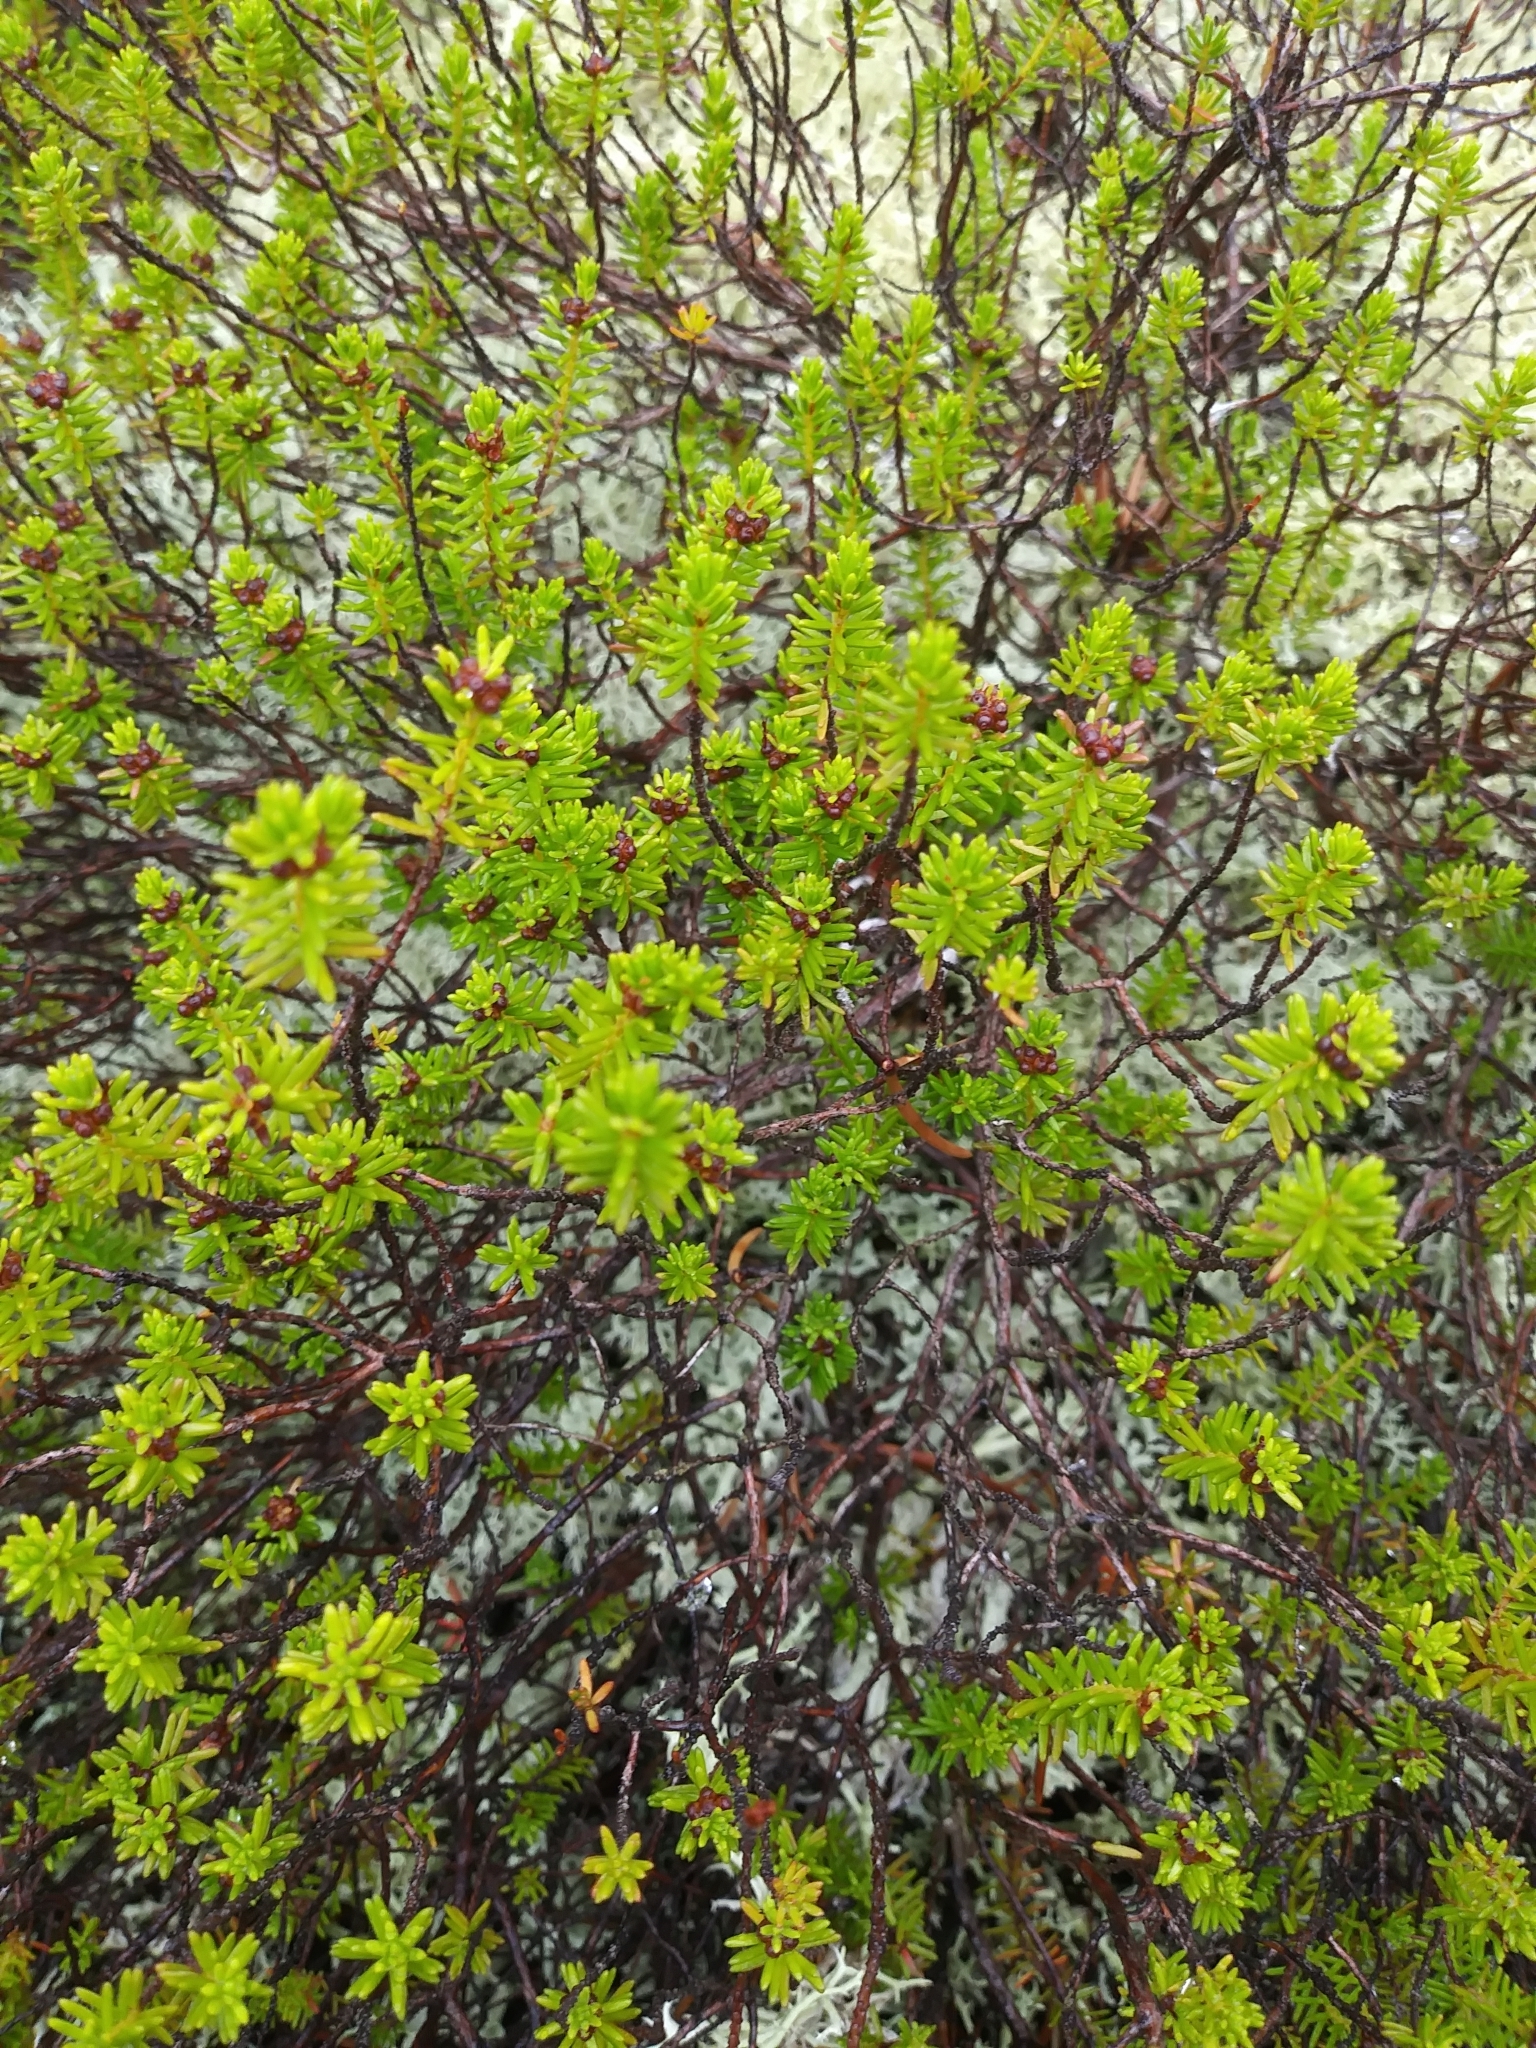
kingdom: Plantae
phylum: Tracheophyta
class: Magnoliopsida
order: Ericales
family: Ericaceae
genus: Corema
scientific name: Corema conradii
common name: Broom-crowberry
